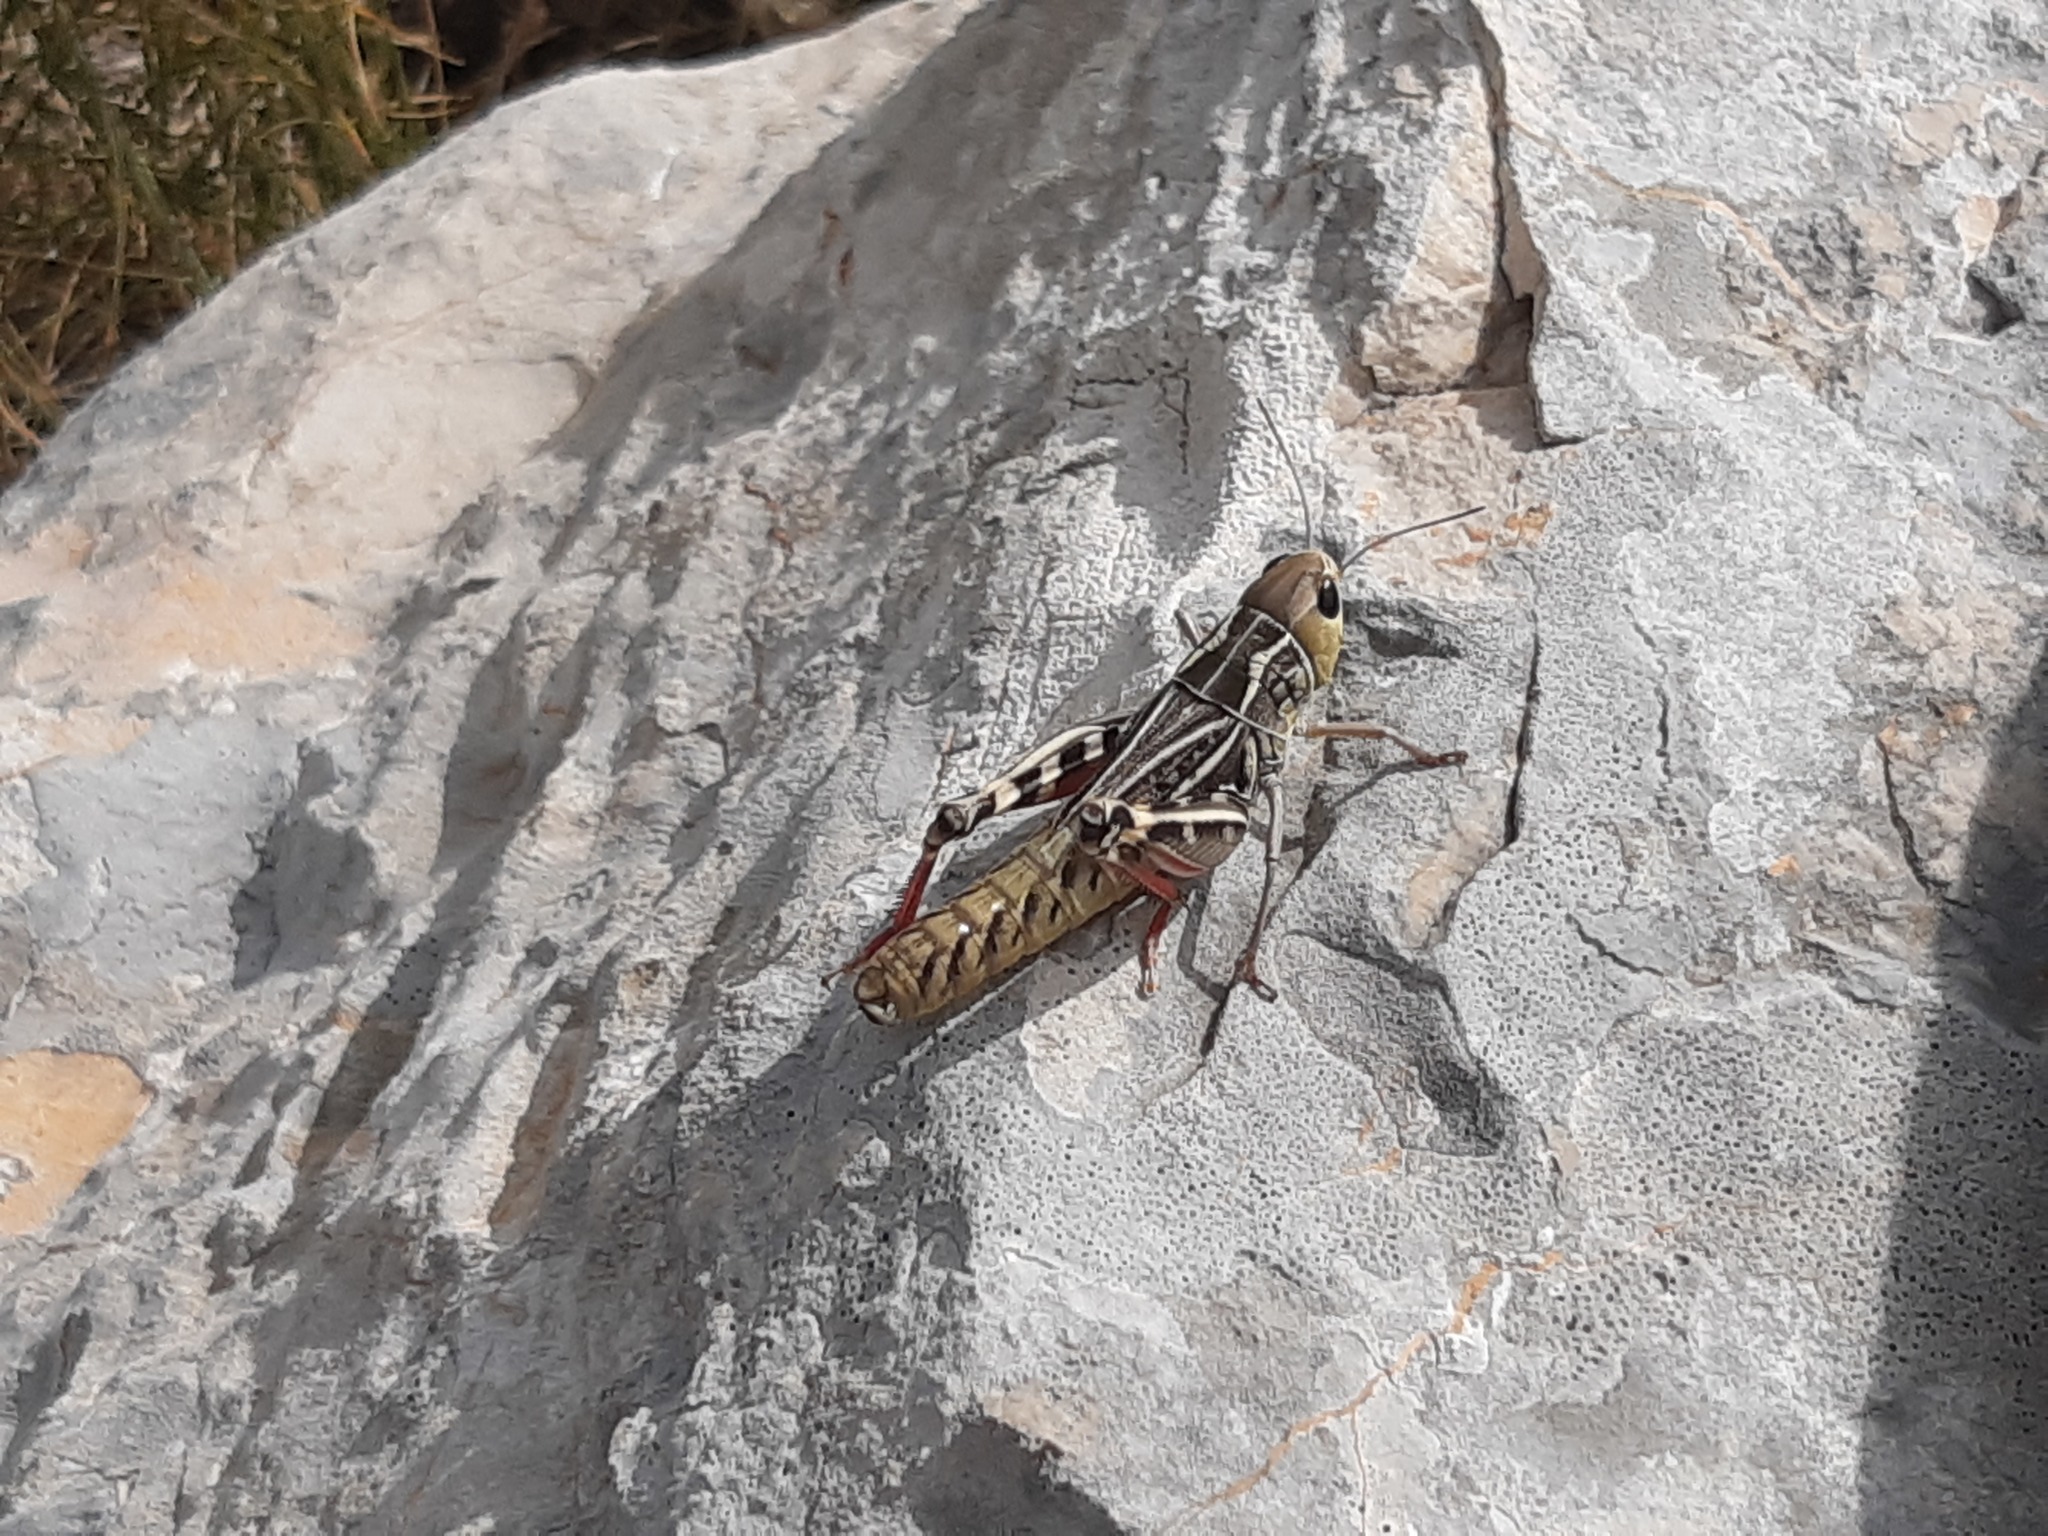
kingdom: Animalia
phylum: Arthropoda
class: Insecta
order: Orthoptera
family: Acrididae
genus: Arcyptera
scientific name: Arcyptera brevipennis
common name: Western banded grasshopper
